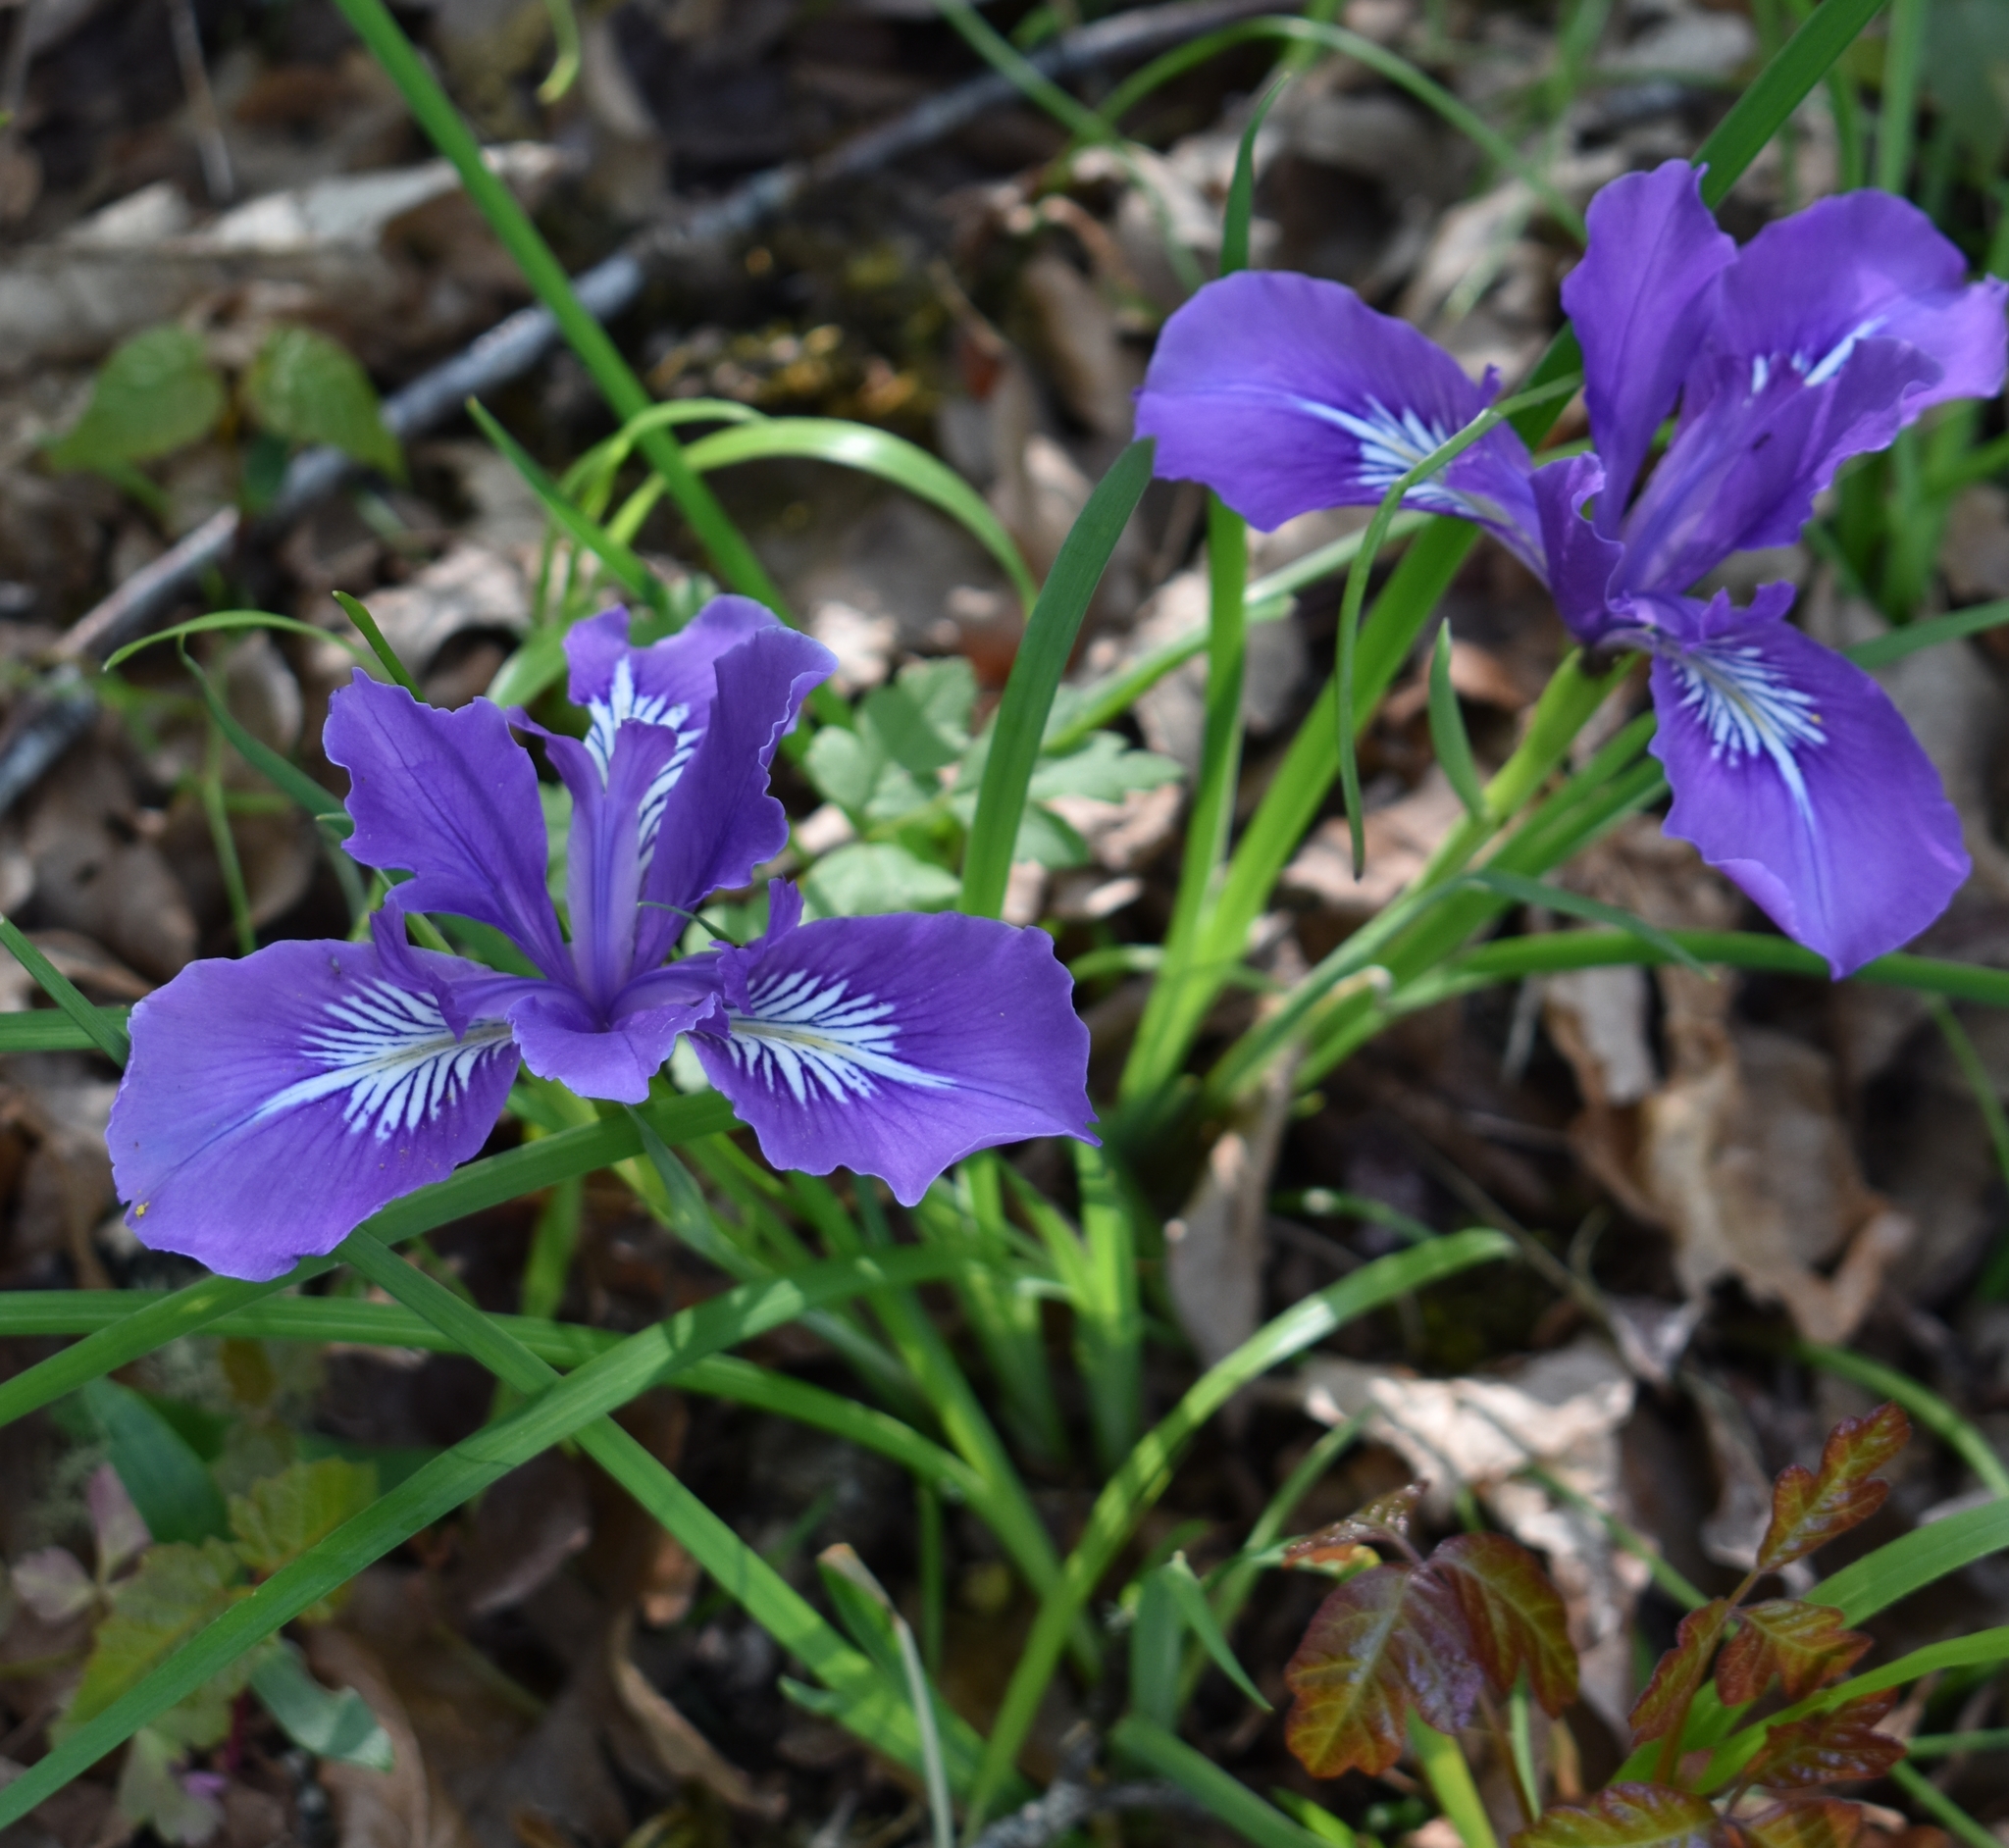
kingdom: Plantae
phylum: Tracheophyta
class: Liliopsida
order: Asparagales
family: Iridaceae
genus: Iris
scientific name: Iris tenax
